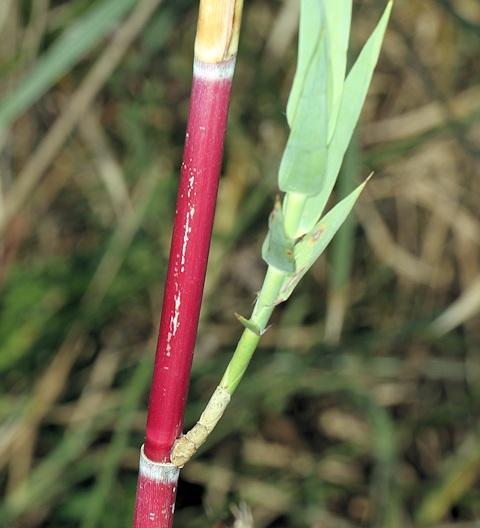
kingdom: Plantae
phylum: Tracheophyta
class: Liliopsida
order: Poales
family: Poaceae
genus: Phragmites
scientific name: Phragmites mauritianus
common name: Reed grass
